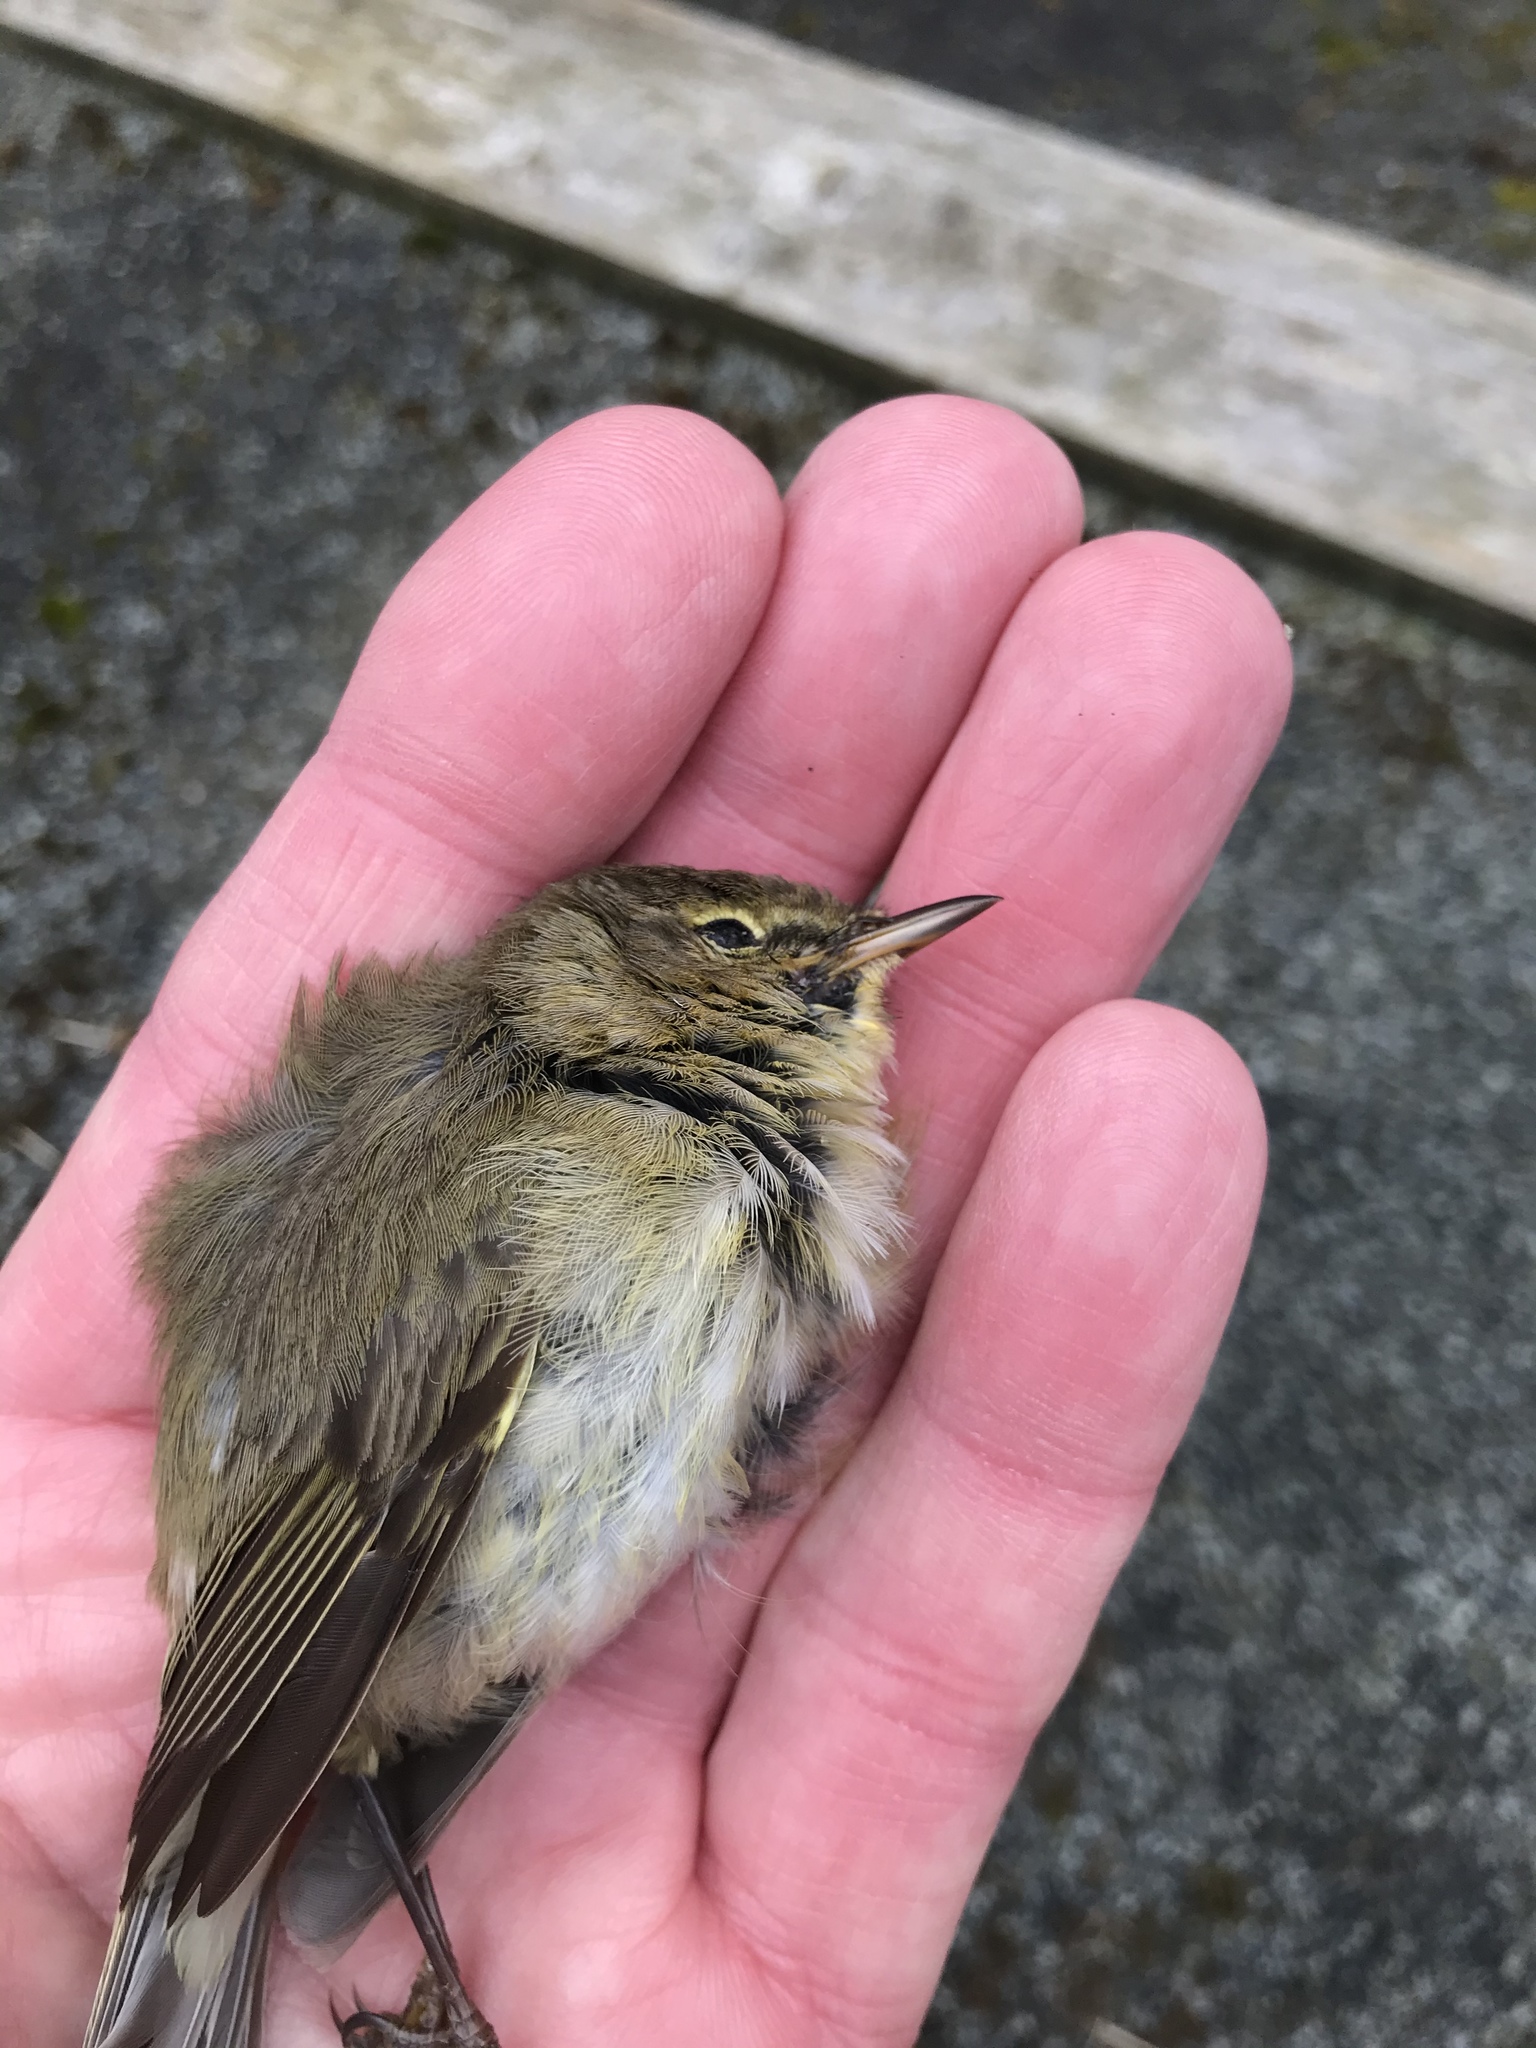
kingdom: Animalia
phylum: Chordata
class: Aves
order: Passeriformes
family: Phylloscopidae
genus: Phylloscopus
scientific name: Phylloscopus collybita
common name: Common chiffchaff
